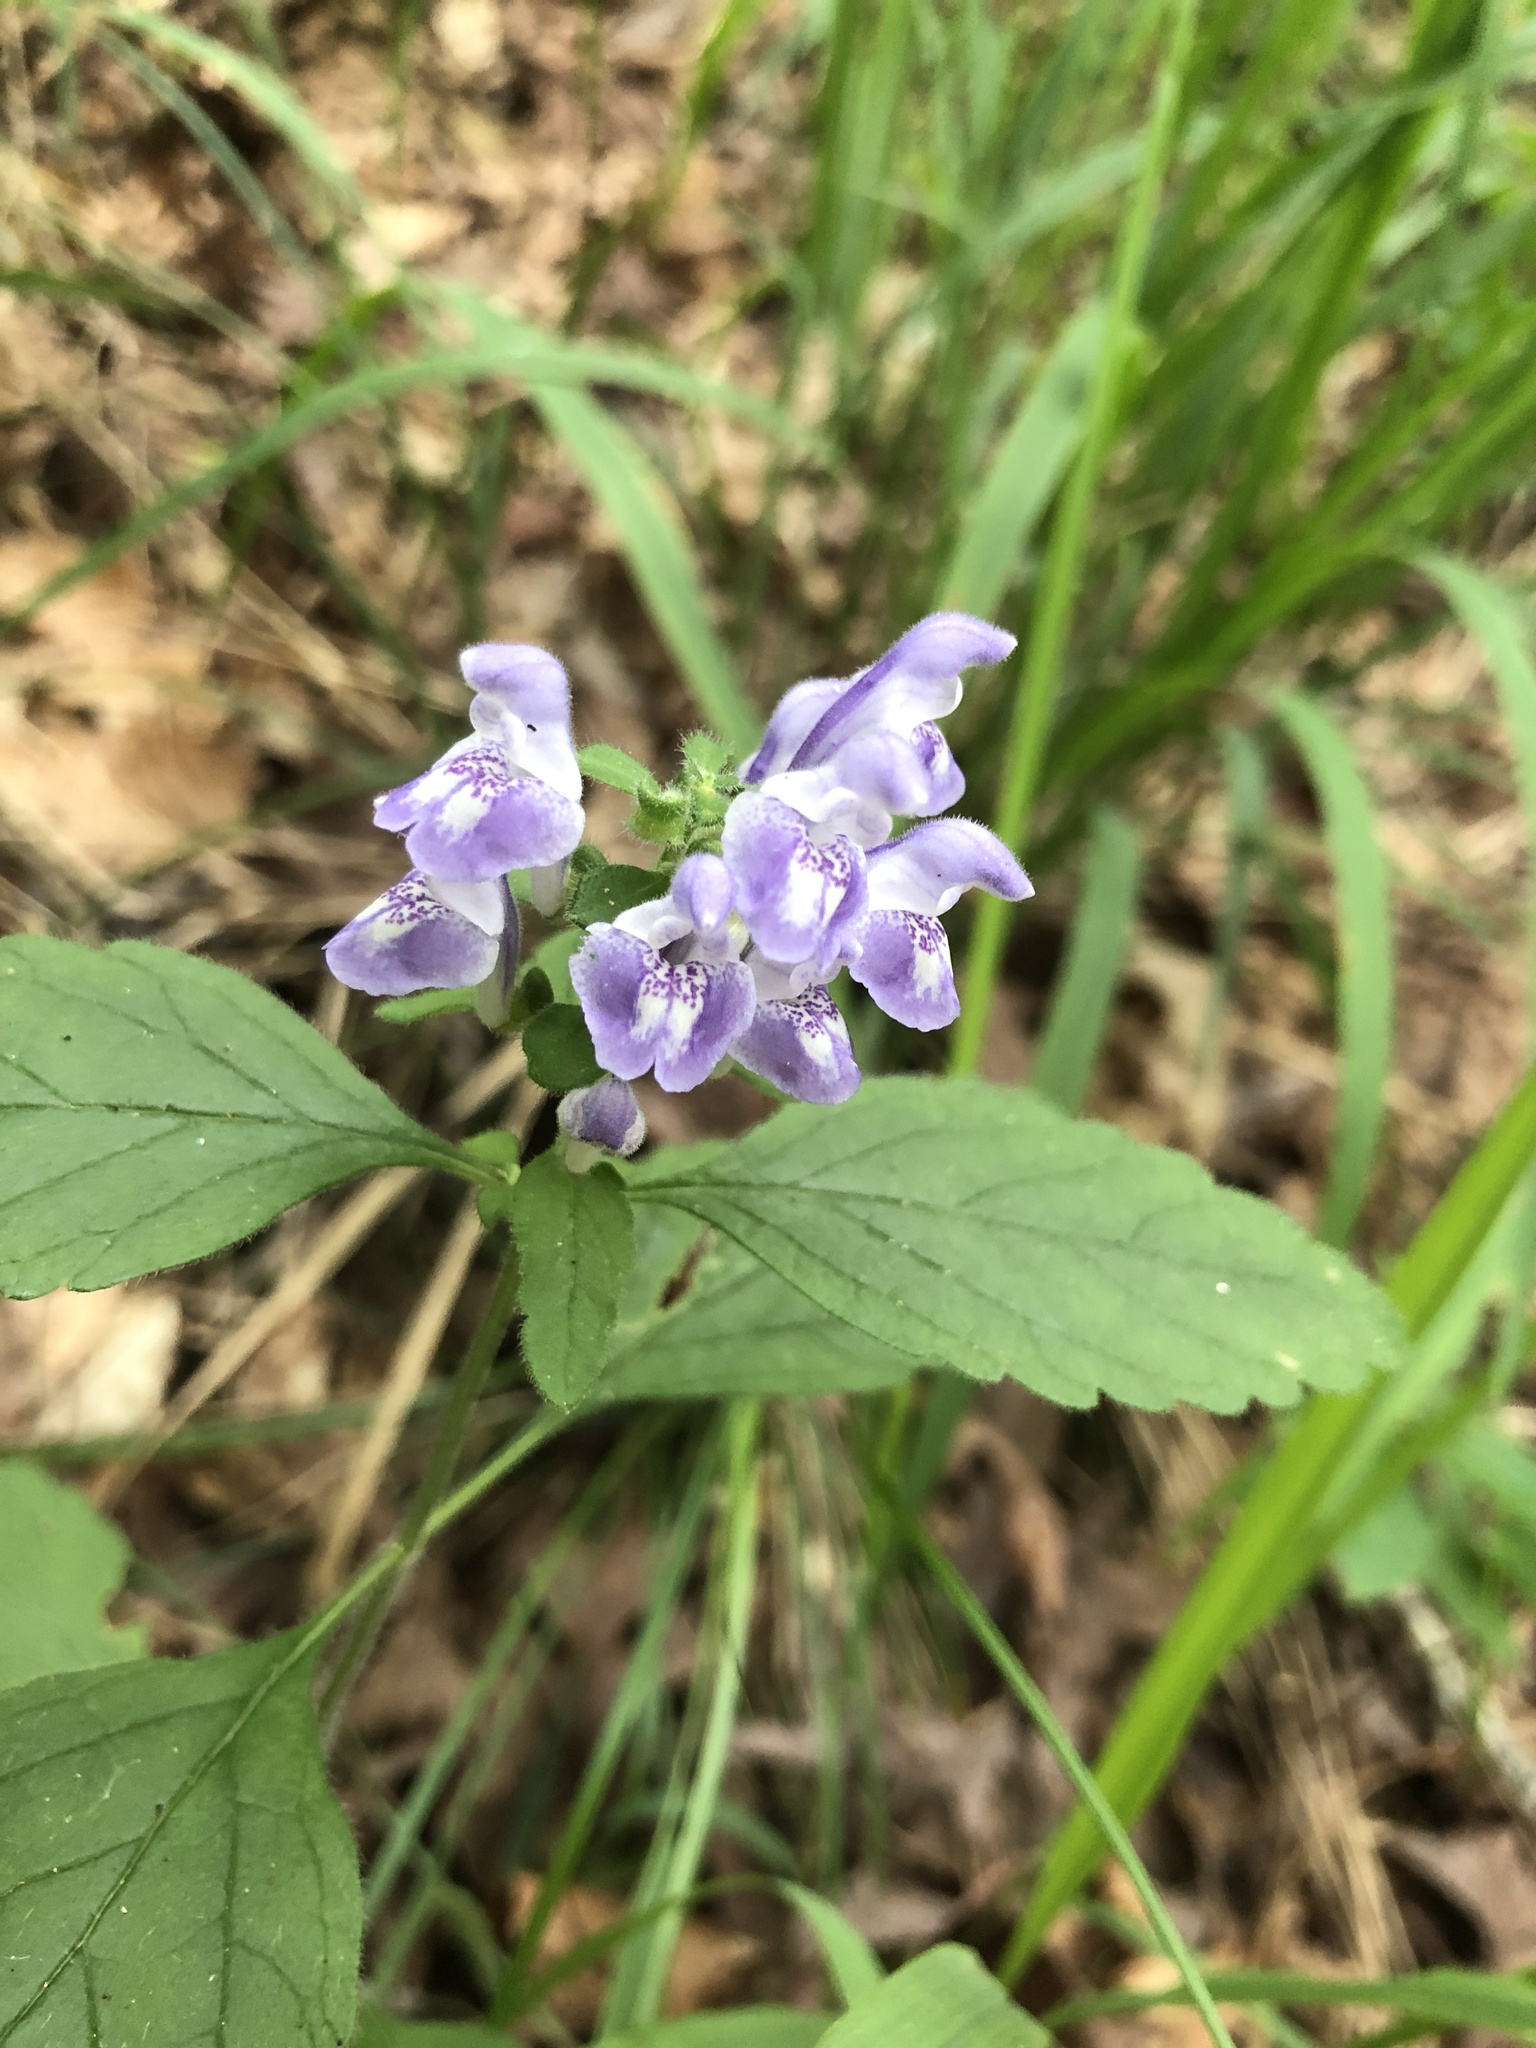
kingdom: Plantae
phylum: Tracheophyta
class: Magnoliopsida
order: Lamiales
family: Lamiaceae
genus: Scutellaria
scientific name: Scutellaria elliptica
